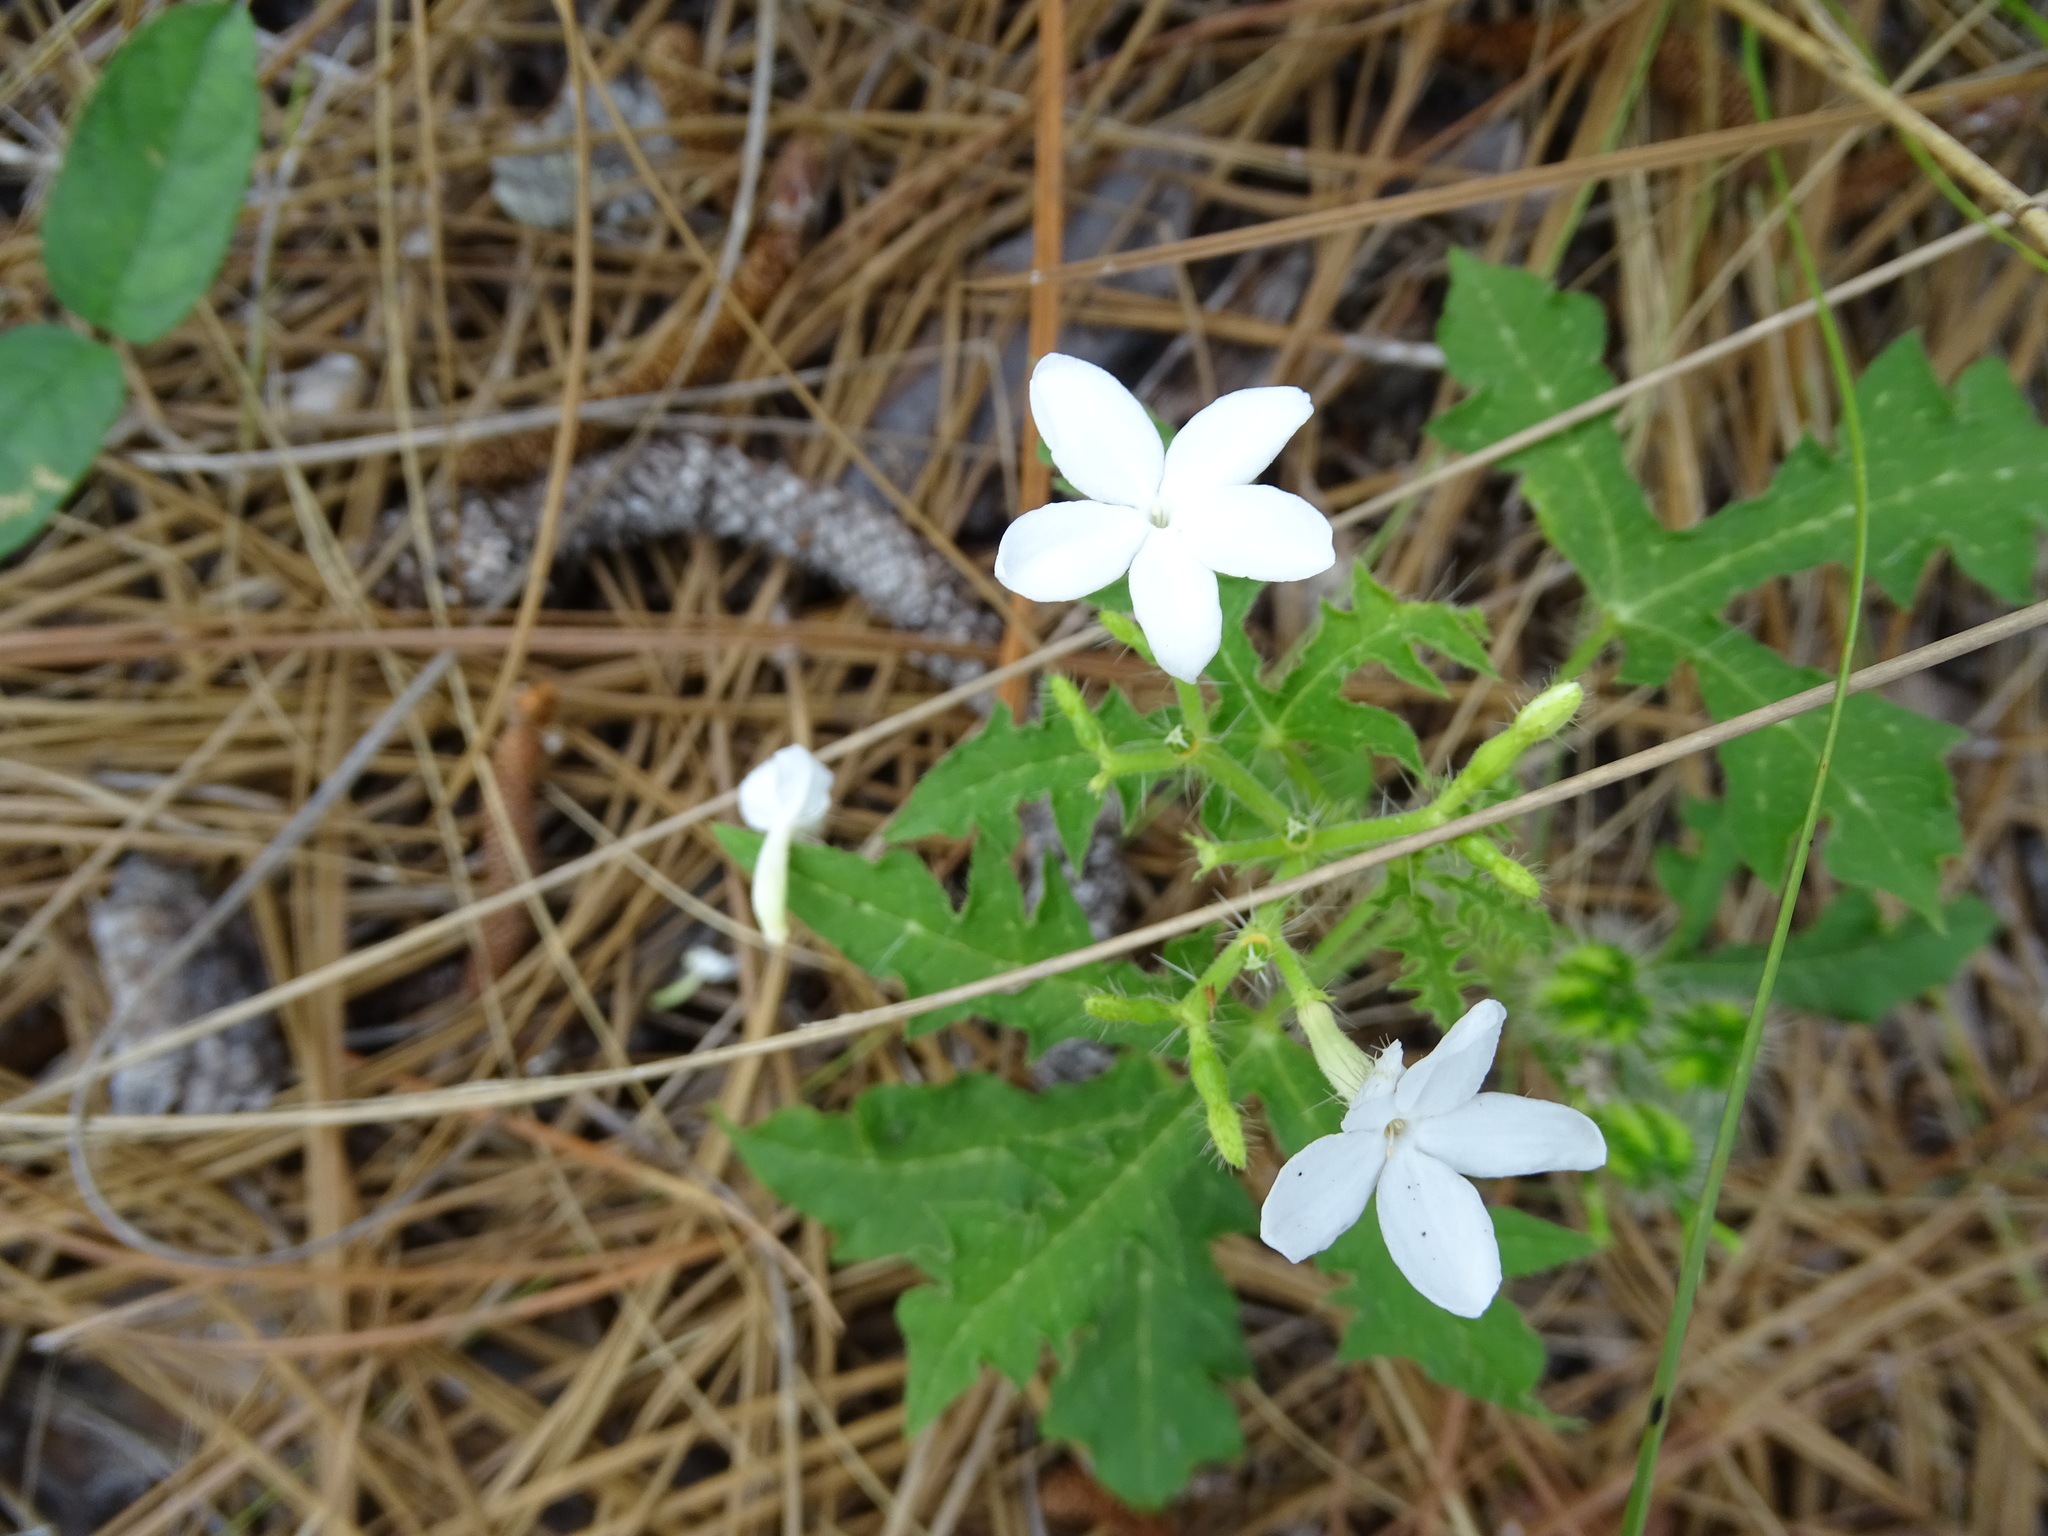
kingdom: Plantae
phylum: Tracheophyta
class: Magnoliopsida
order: Malpighiales
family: Euphorbiaceae
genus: Cnidoscolus
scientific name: Cnidoscolus stimulosus
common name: Bull-nettle
